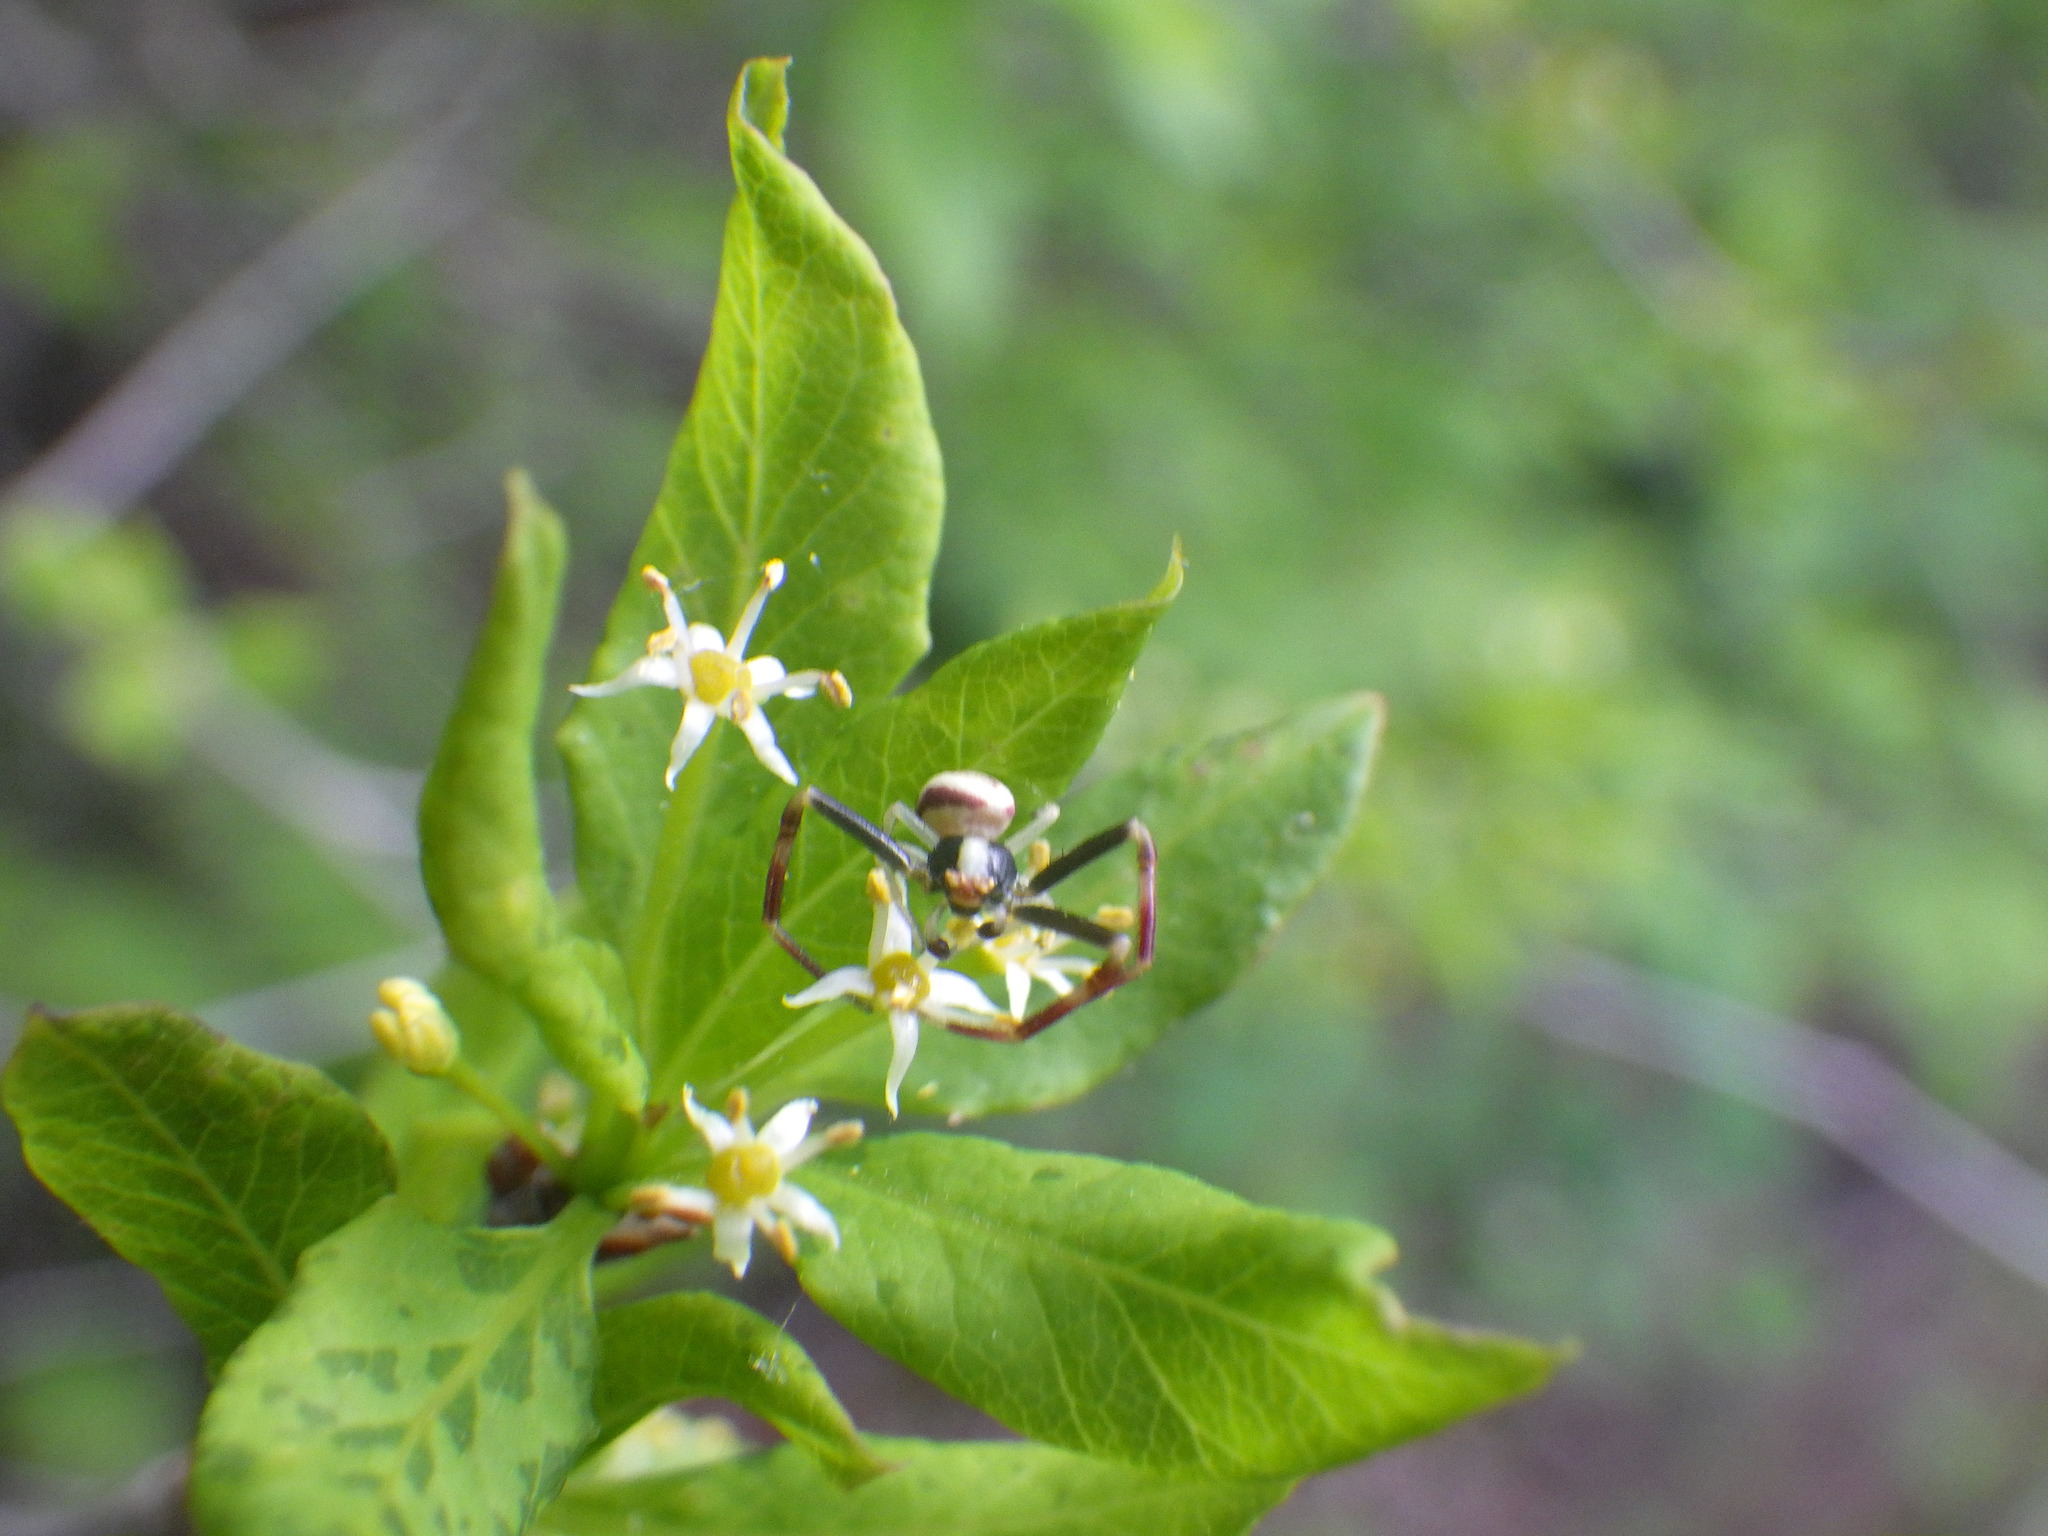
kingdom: Animalia
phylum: Arthropoda
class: Arachnida
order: Araneae
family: Thomisidae
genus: Misumena
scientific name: Misumena vatia
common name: Goldenrod crab spider
